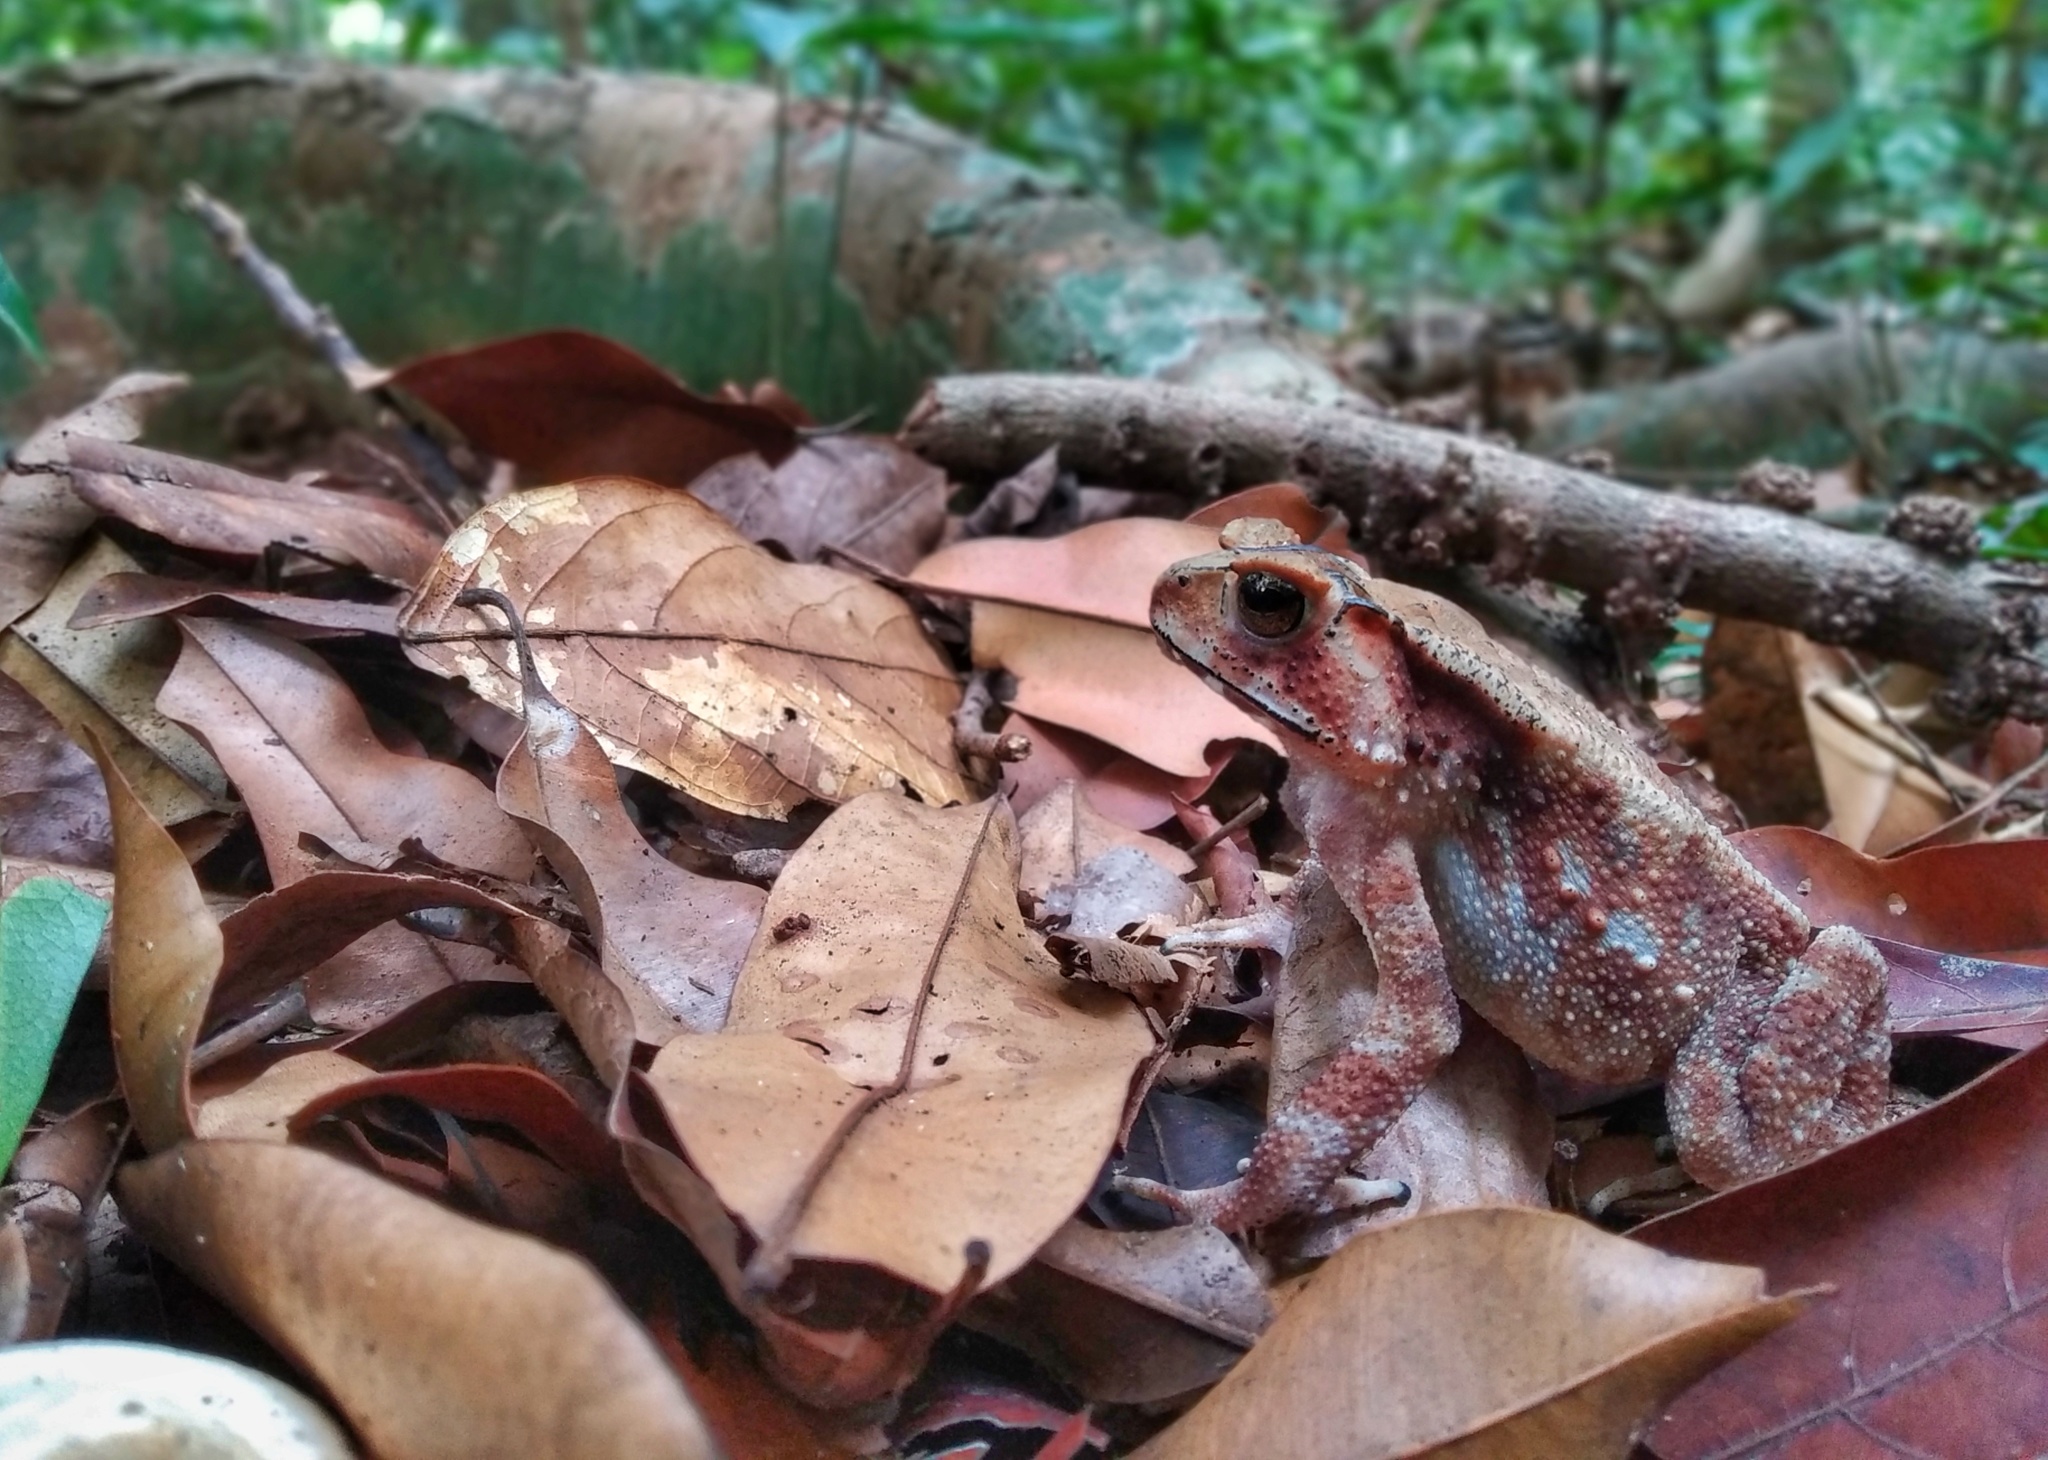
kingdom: Animalia
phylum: Chordata
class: Amphibia
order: Anura
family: Bufonidae
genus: Duttaphrynus
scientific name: Duttaphrynus parietalis
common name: Indian toad
